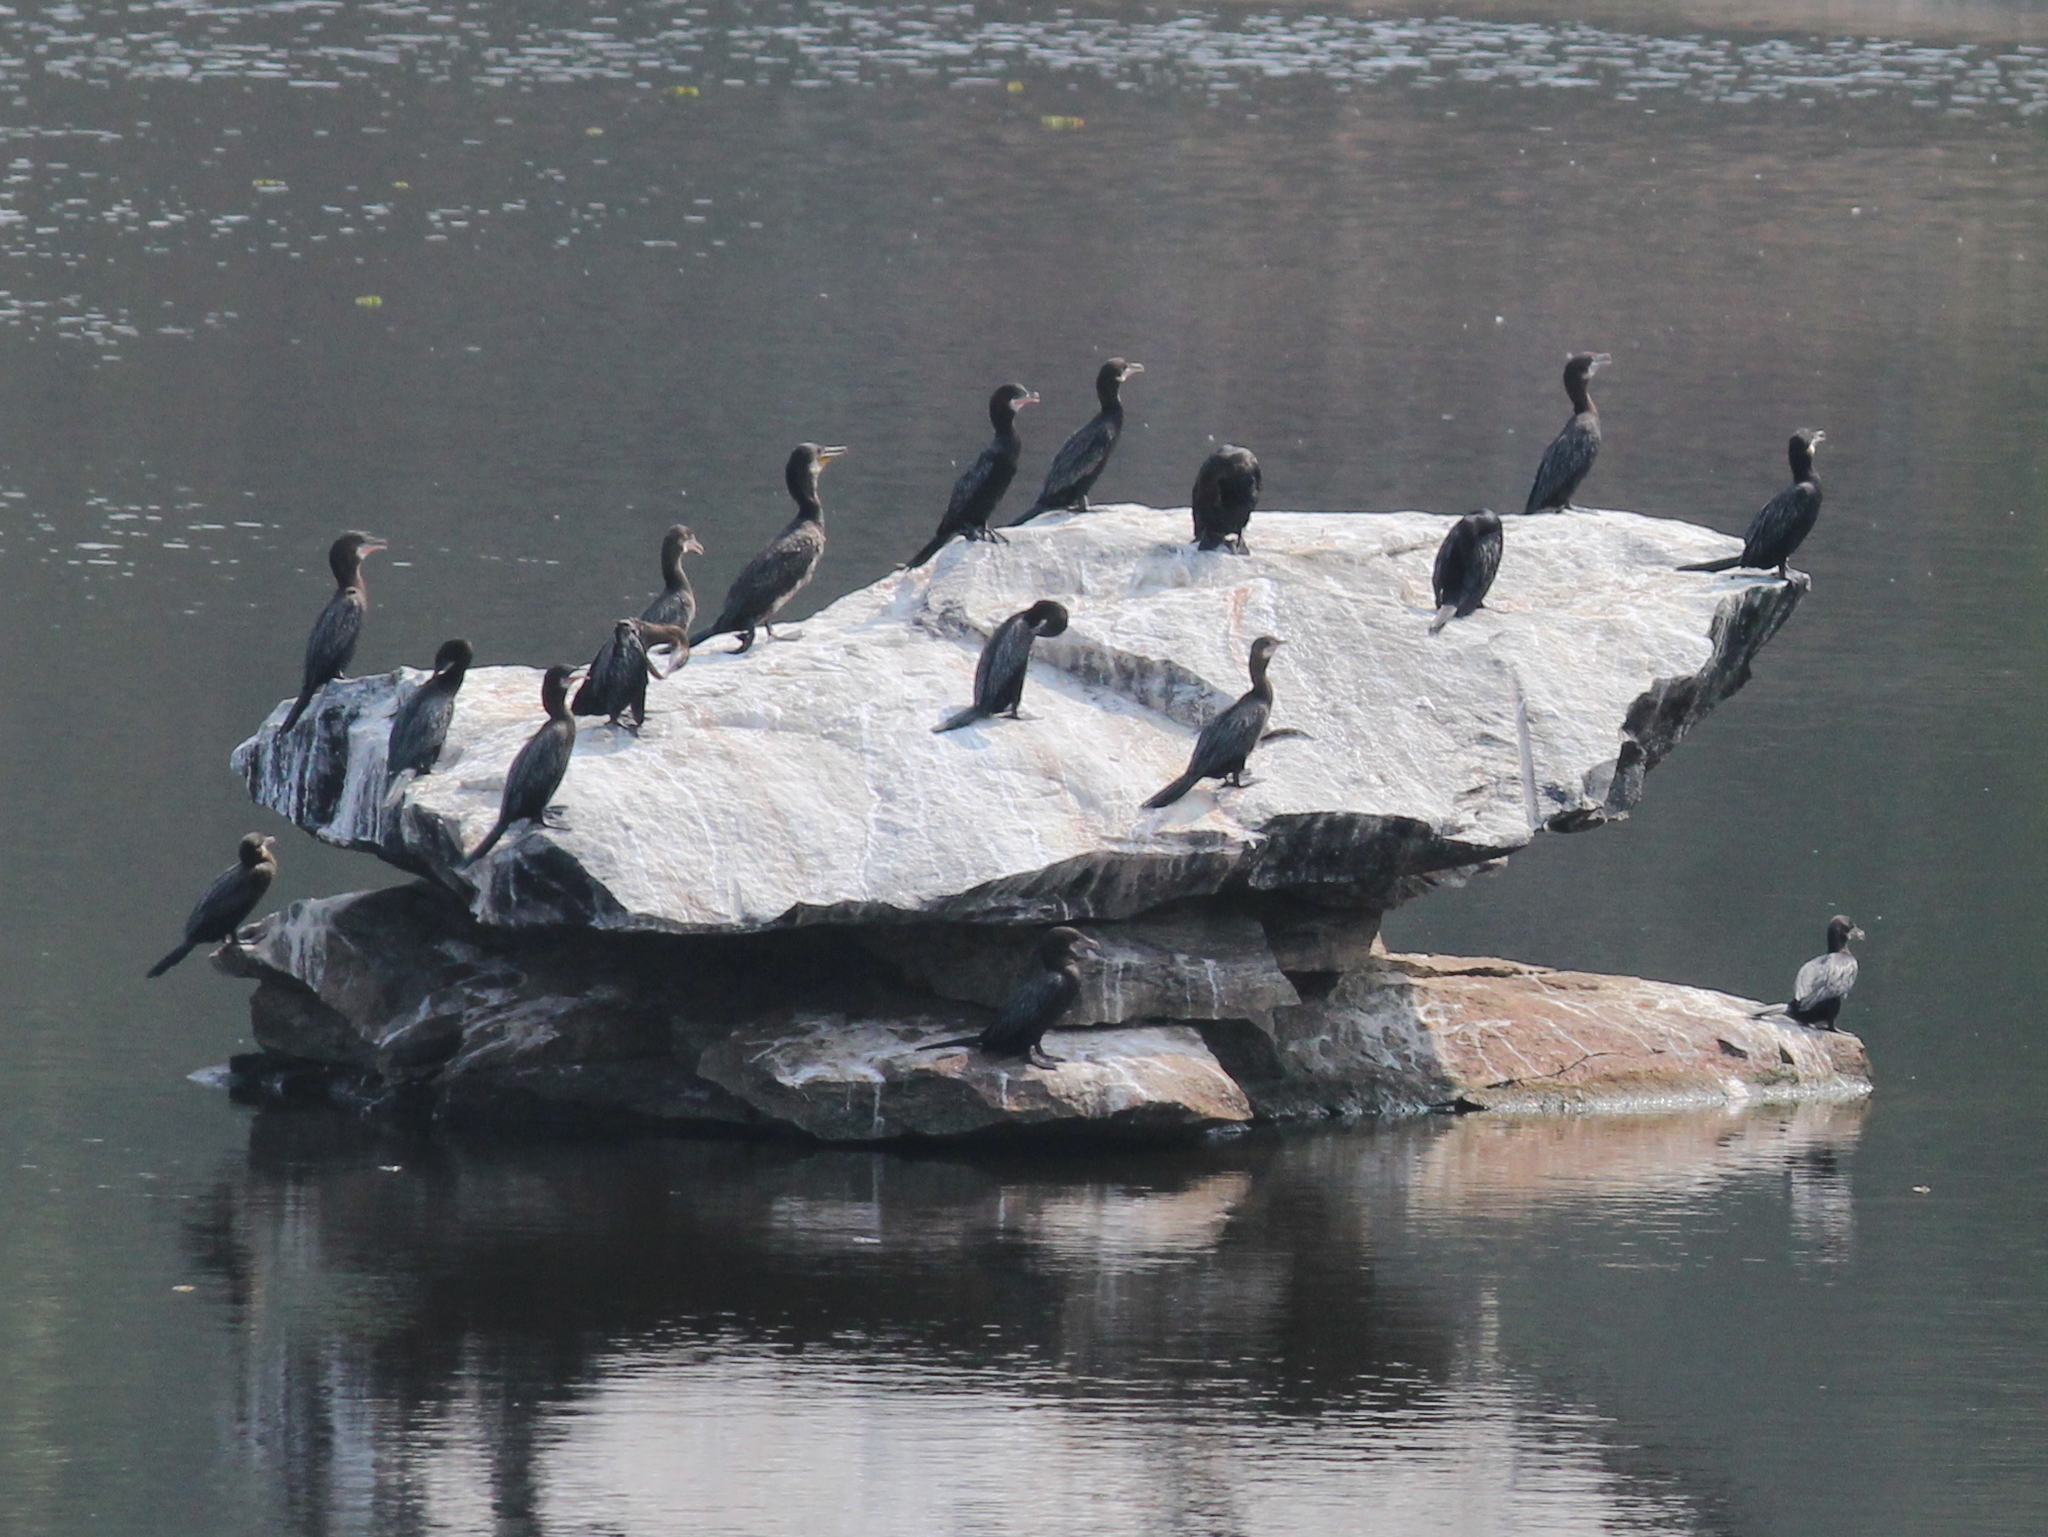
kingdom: Animalia
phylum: Chordata
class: Aves
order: Suliformes
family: Phalacrocoracidae
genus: Microcarbo
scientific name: Microcarbo niger
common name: Little cormorant
